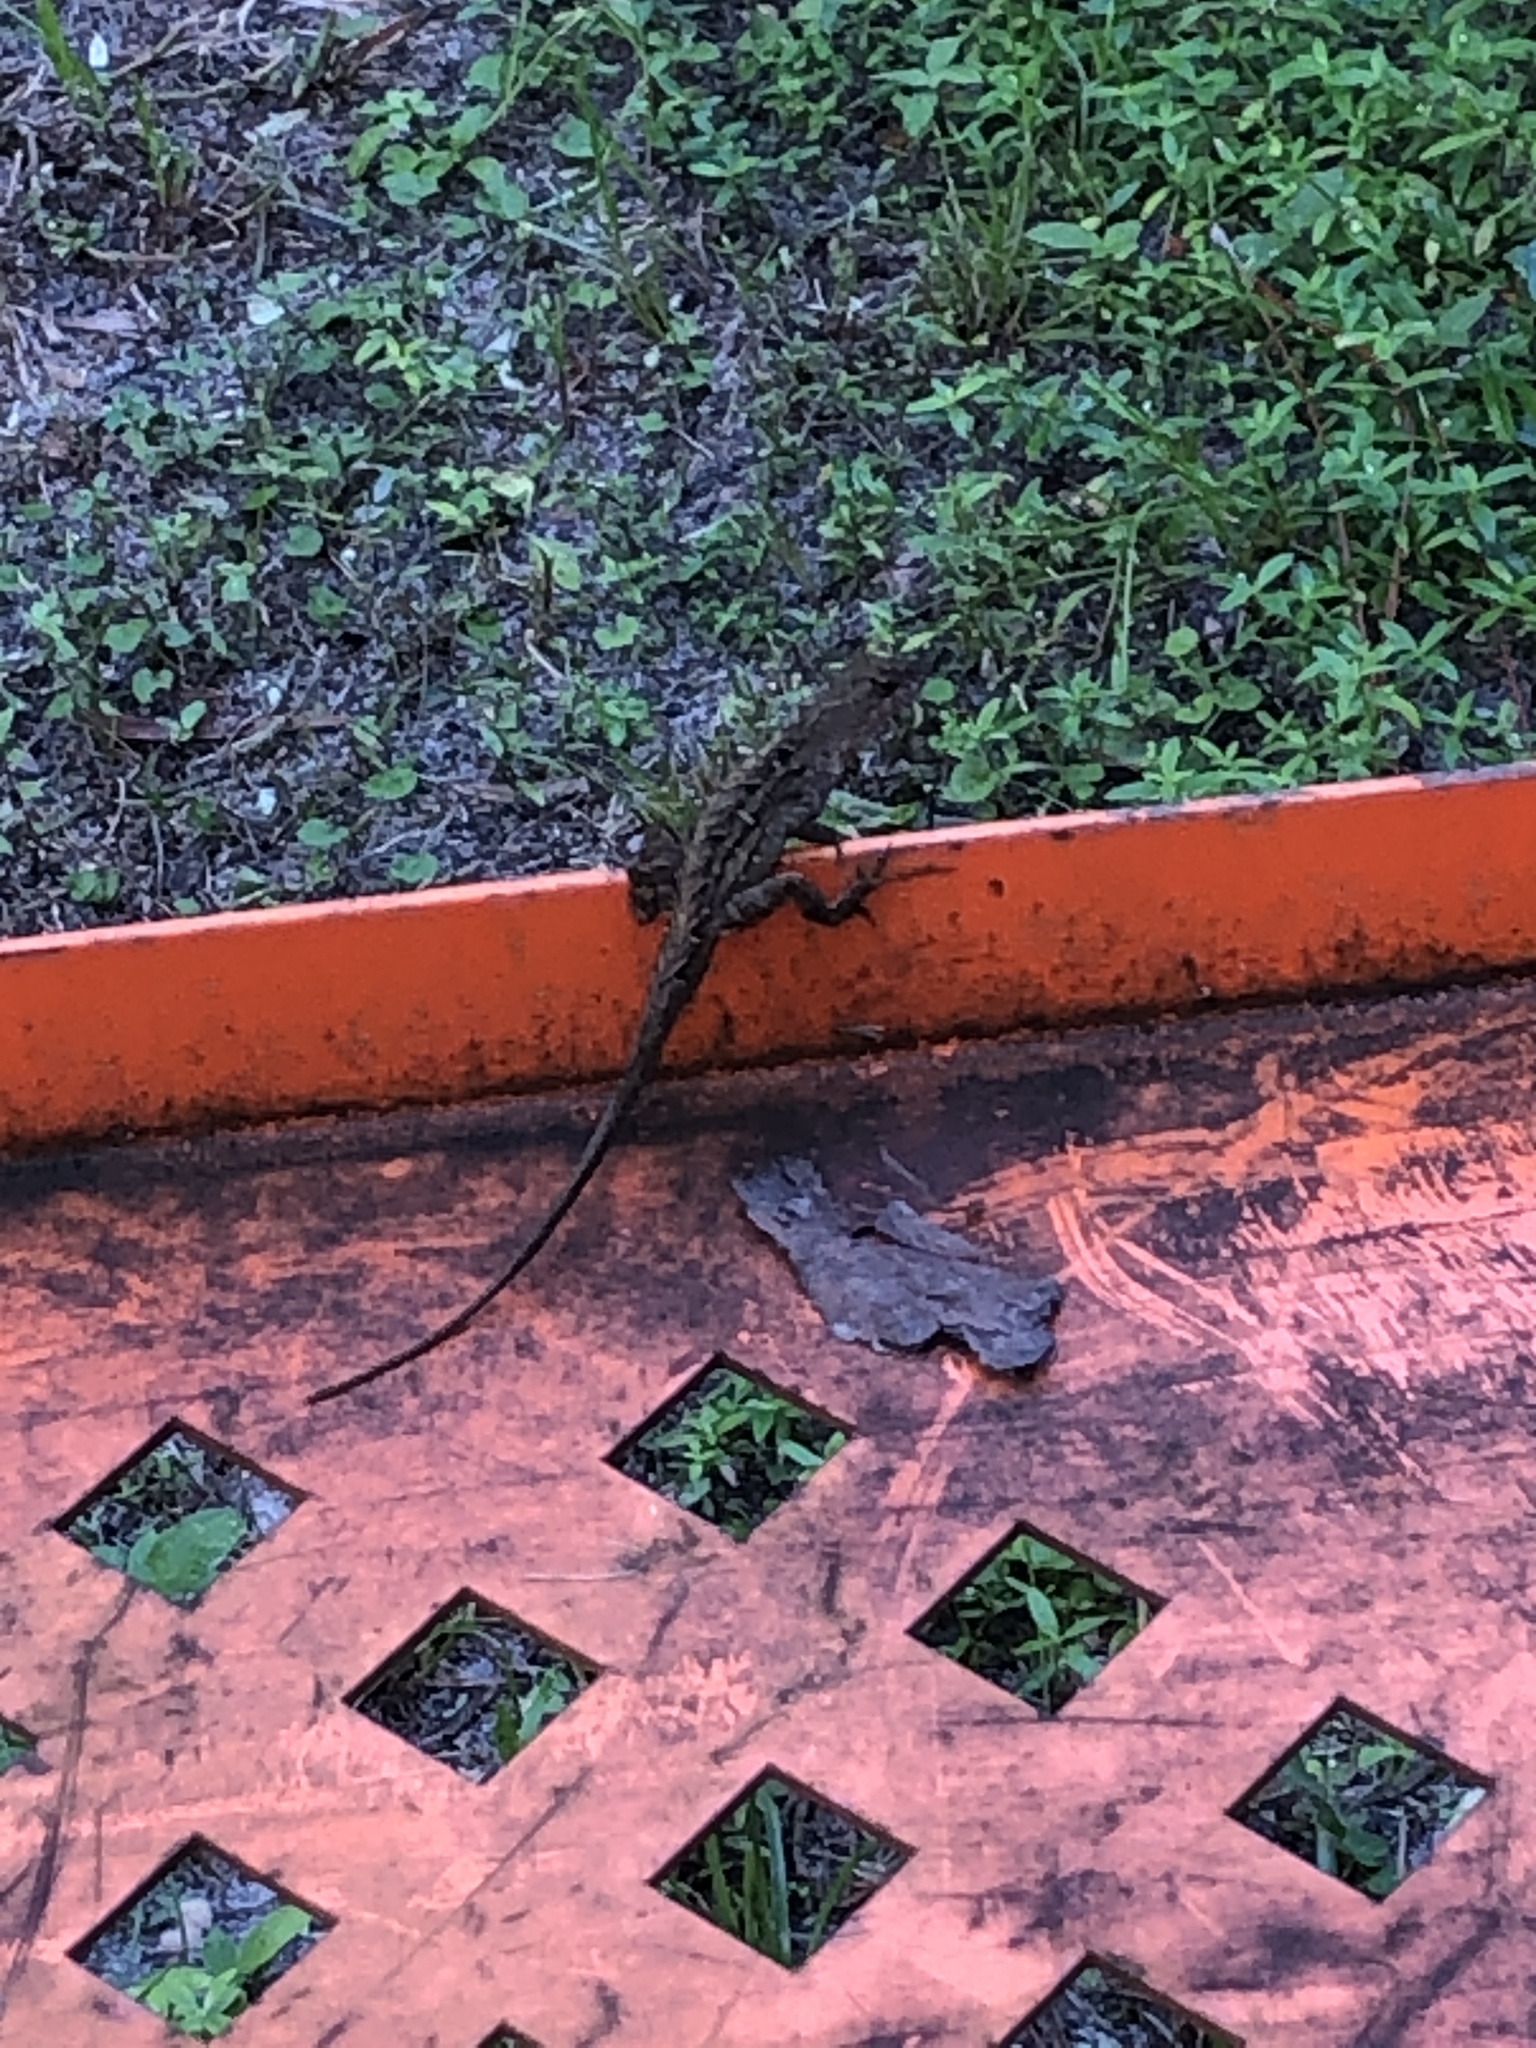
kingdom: Animalia
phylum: Chordata
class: Squamata
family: Dactyloidae
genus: Anolis
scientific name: Anolis sagrei
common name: Brown anole
